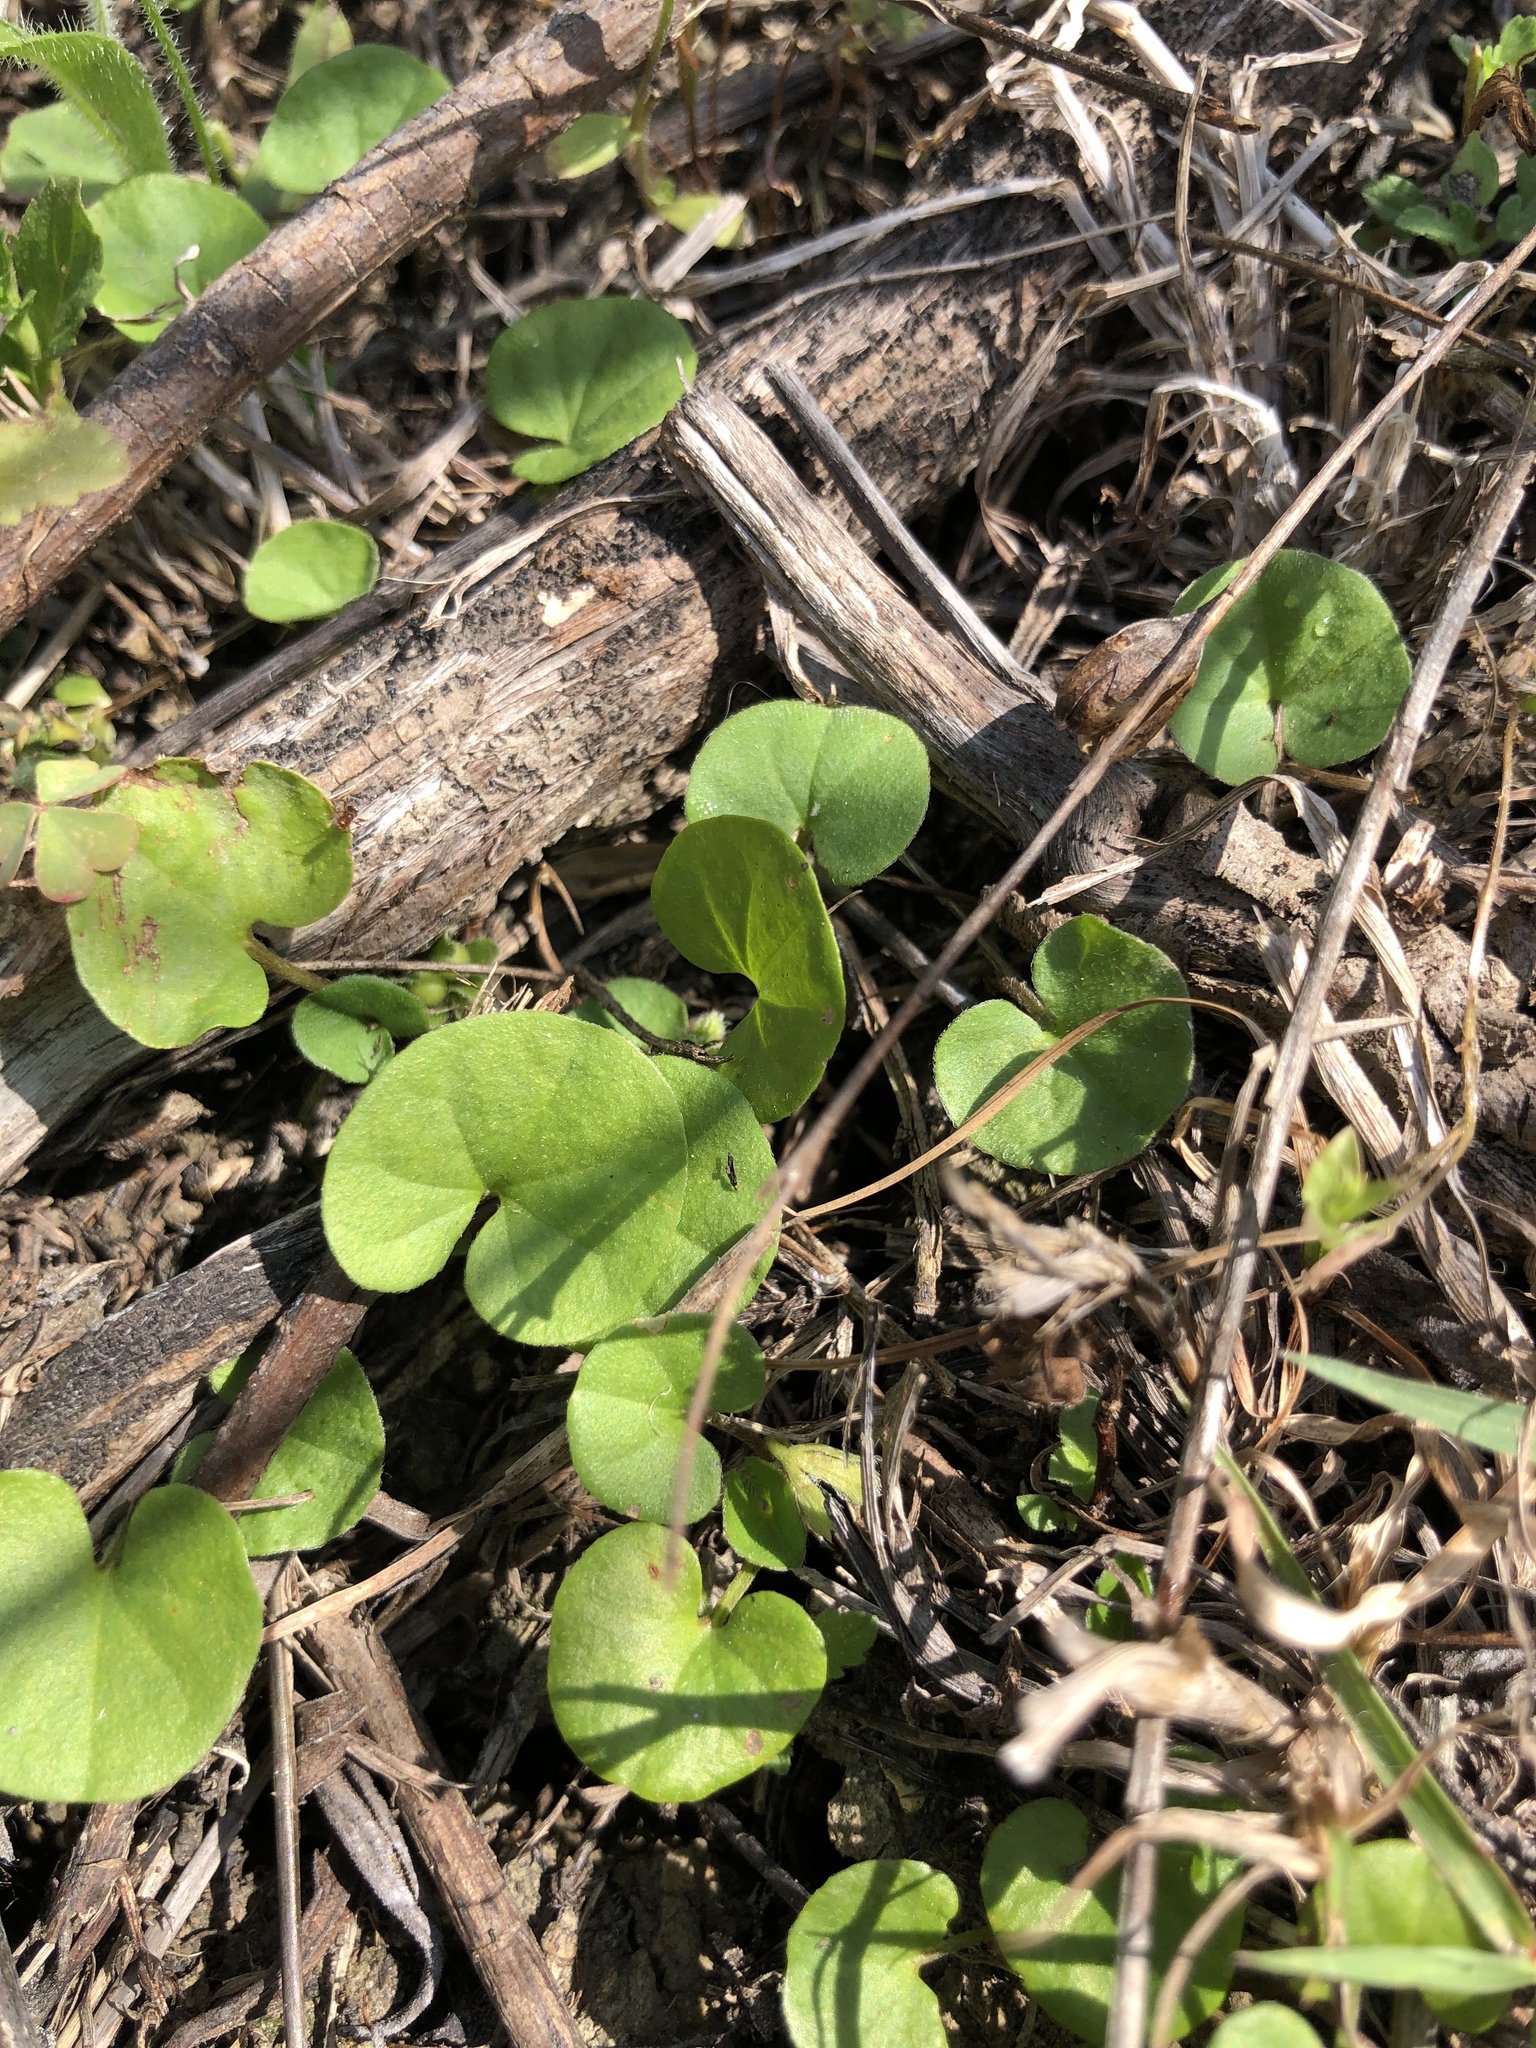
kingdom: Plantae
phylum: Tracheophyta
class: Magnoliopsida
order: Solanales
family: Convolvulaceae
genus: Dichondra
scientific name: Dichondra carolinensis
